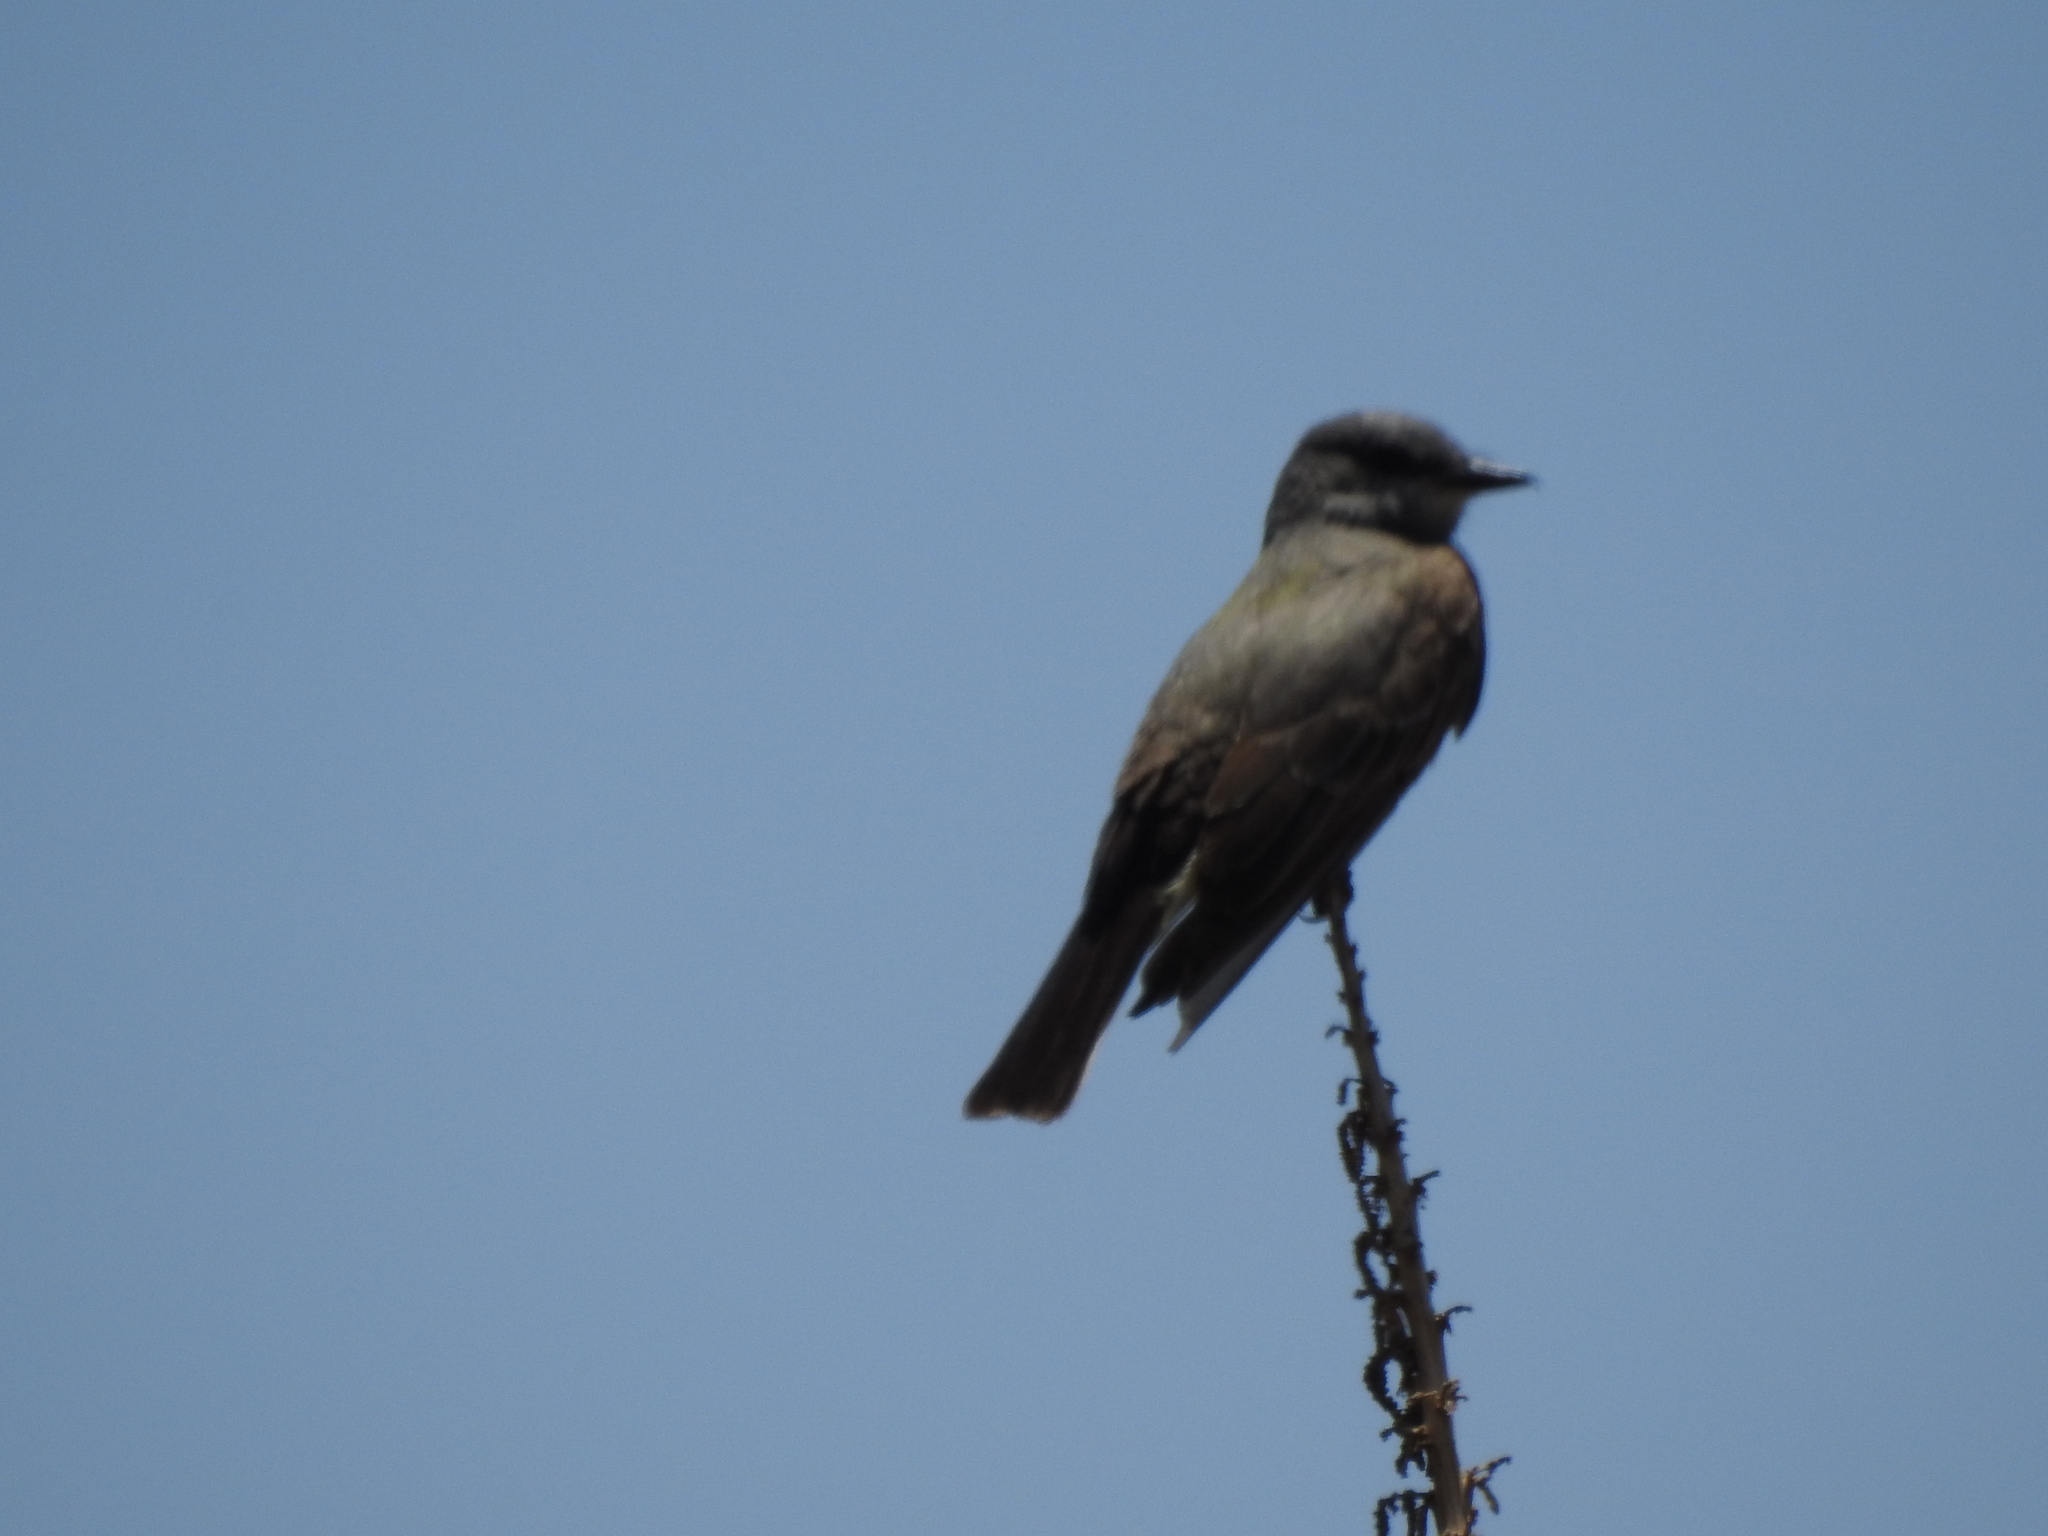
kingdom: Animalia
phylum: Chordata
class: Aves
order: Passeriformes
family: Tyrannidae
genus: Tyrannus
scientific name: Tyrannus vociferans
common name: Cassin's kingbird
